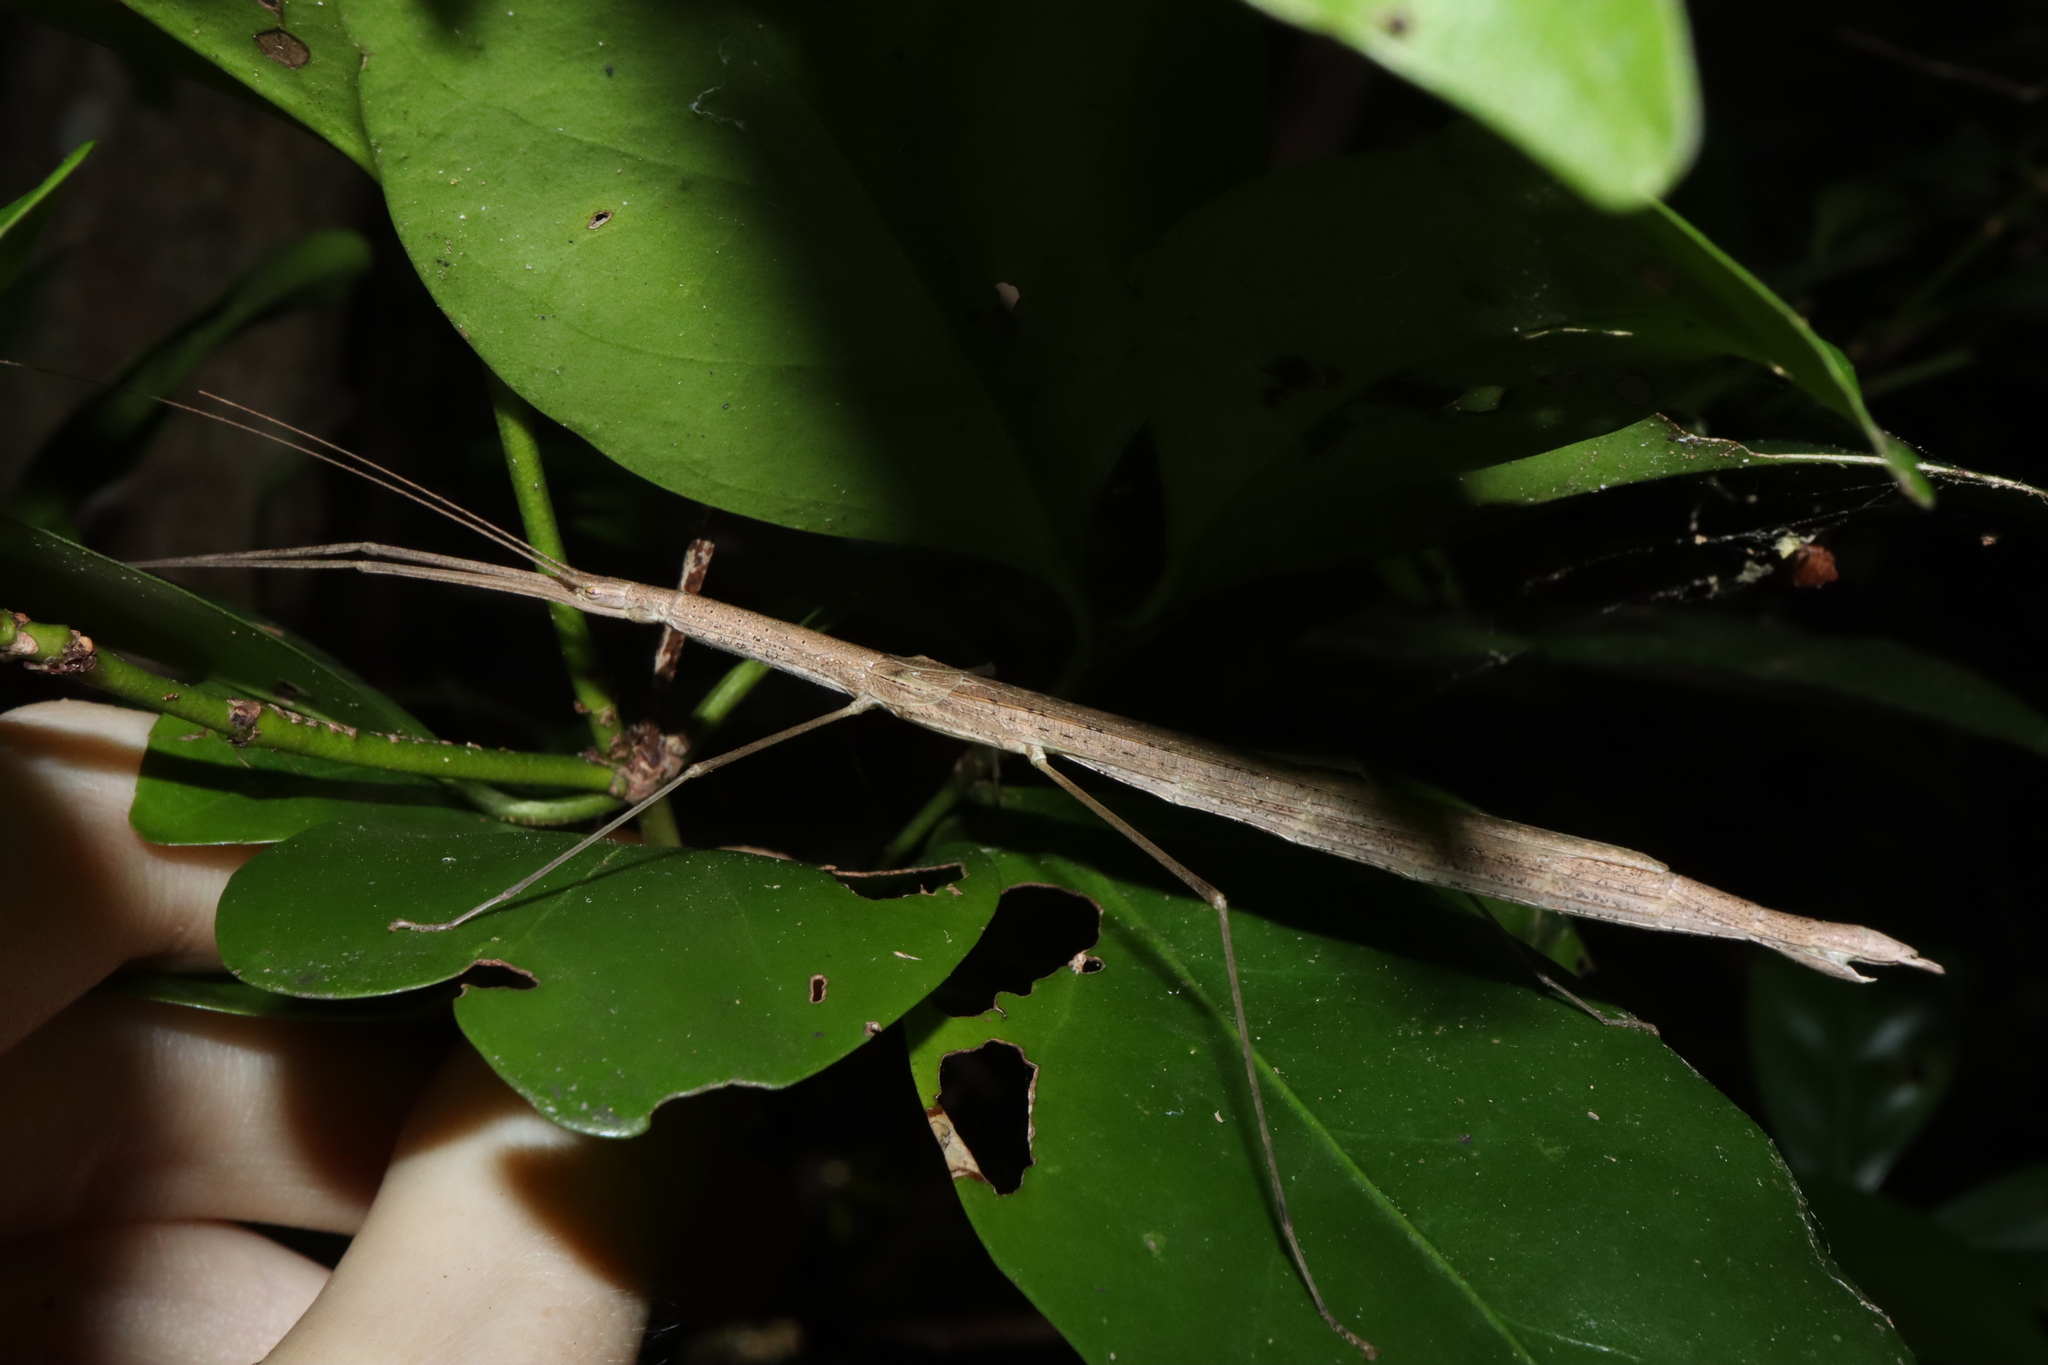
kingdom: Animalia
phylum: Arthropoda
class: Insecta
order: Phasmida
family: Lonchodidae
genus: Sipyloidea
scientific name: Sipyloidea caeca
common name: Confused winged stick-insect
